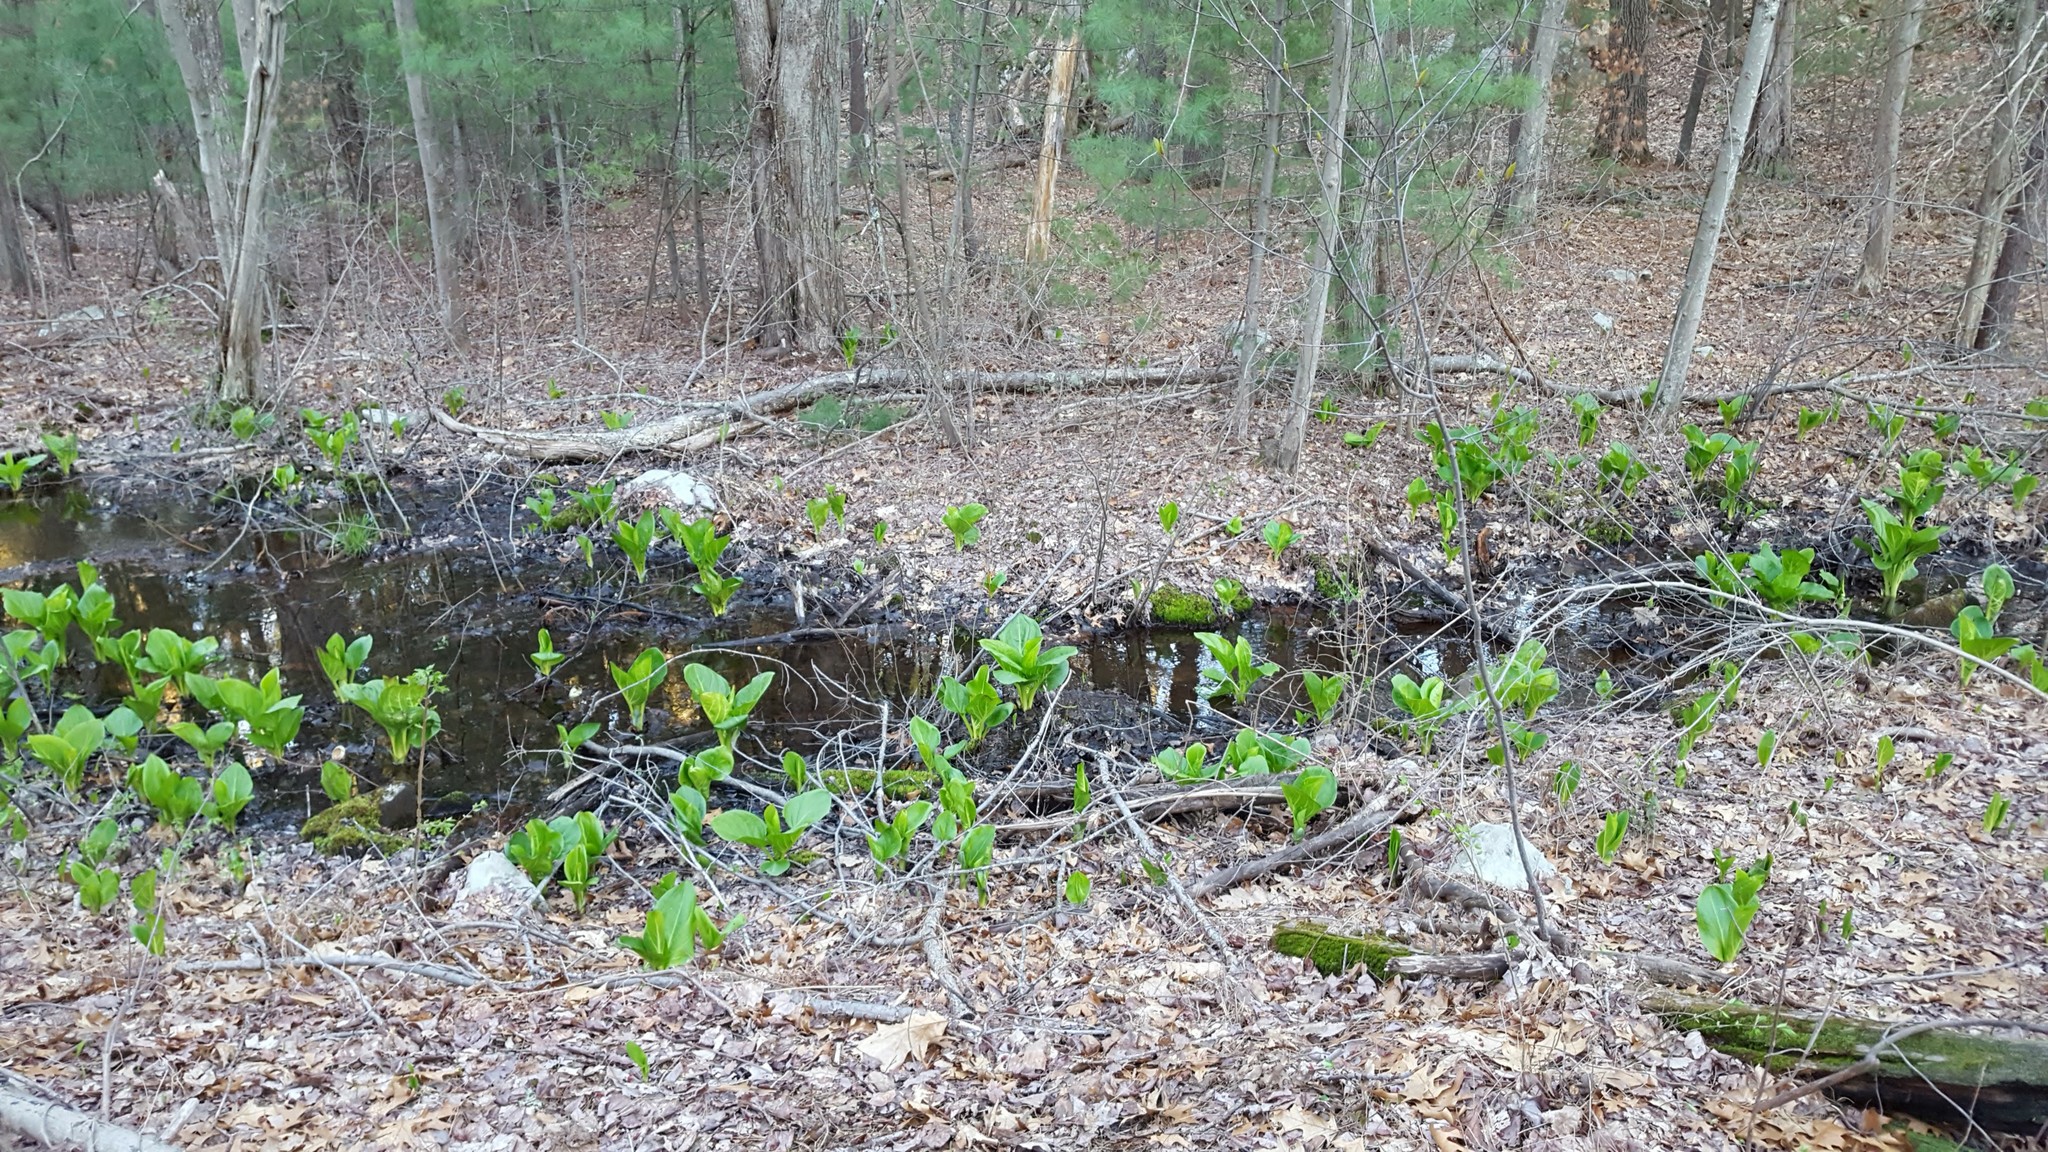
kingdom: Plantae
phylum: Tracheophyta
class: Liliopsida
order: Alismatales
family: Araceae
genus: Symplocarpus
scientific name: Symplocarpus foetidus
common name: Eastern skunk cabbage
